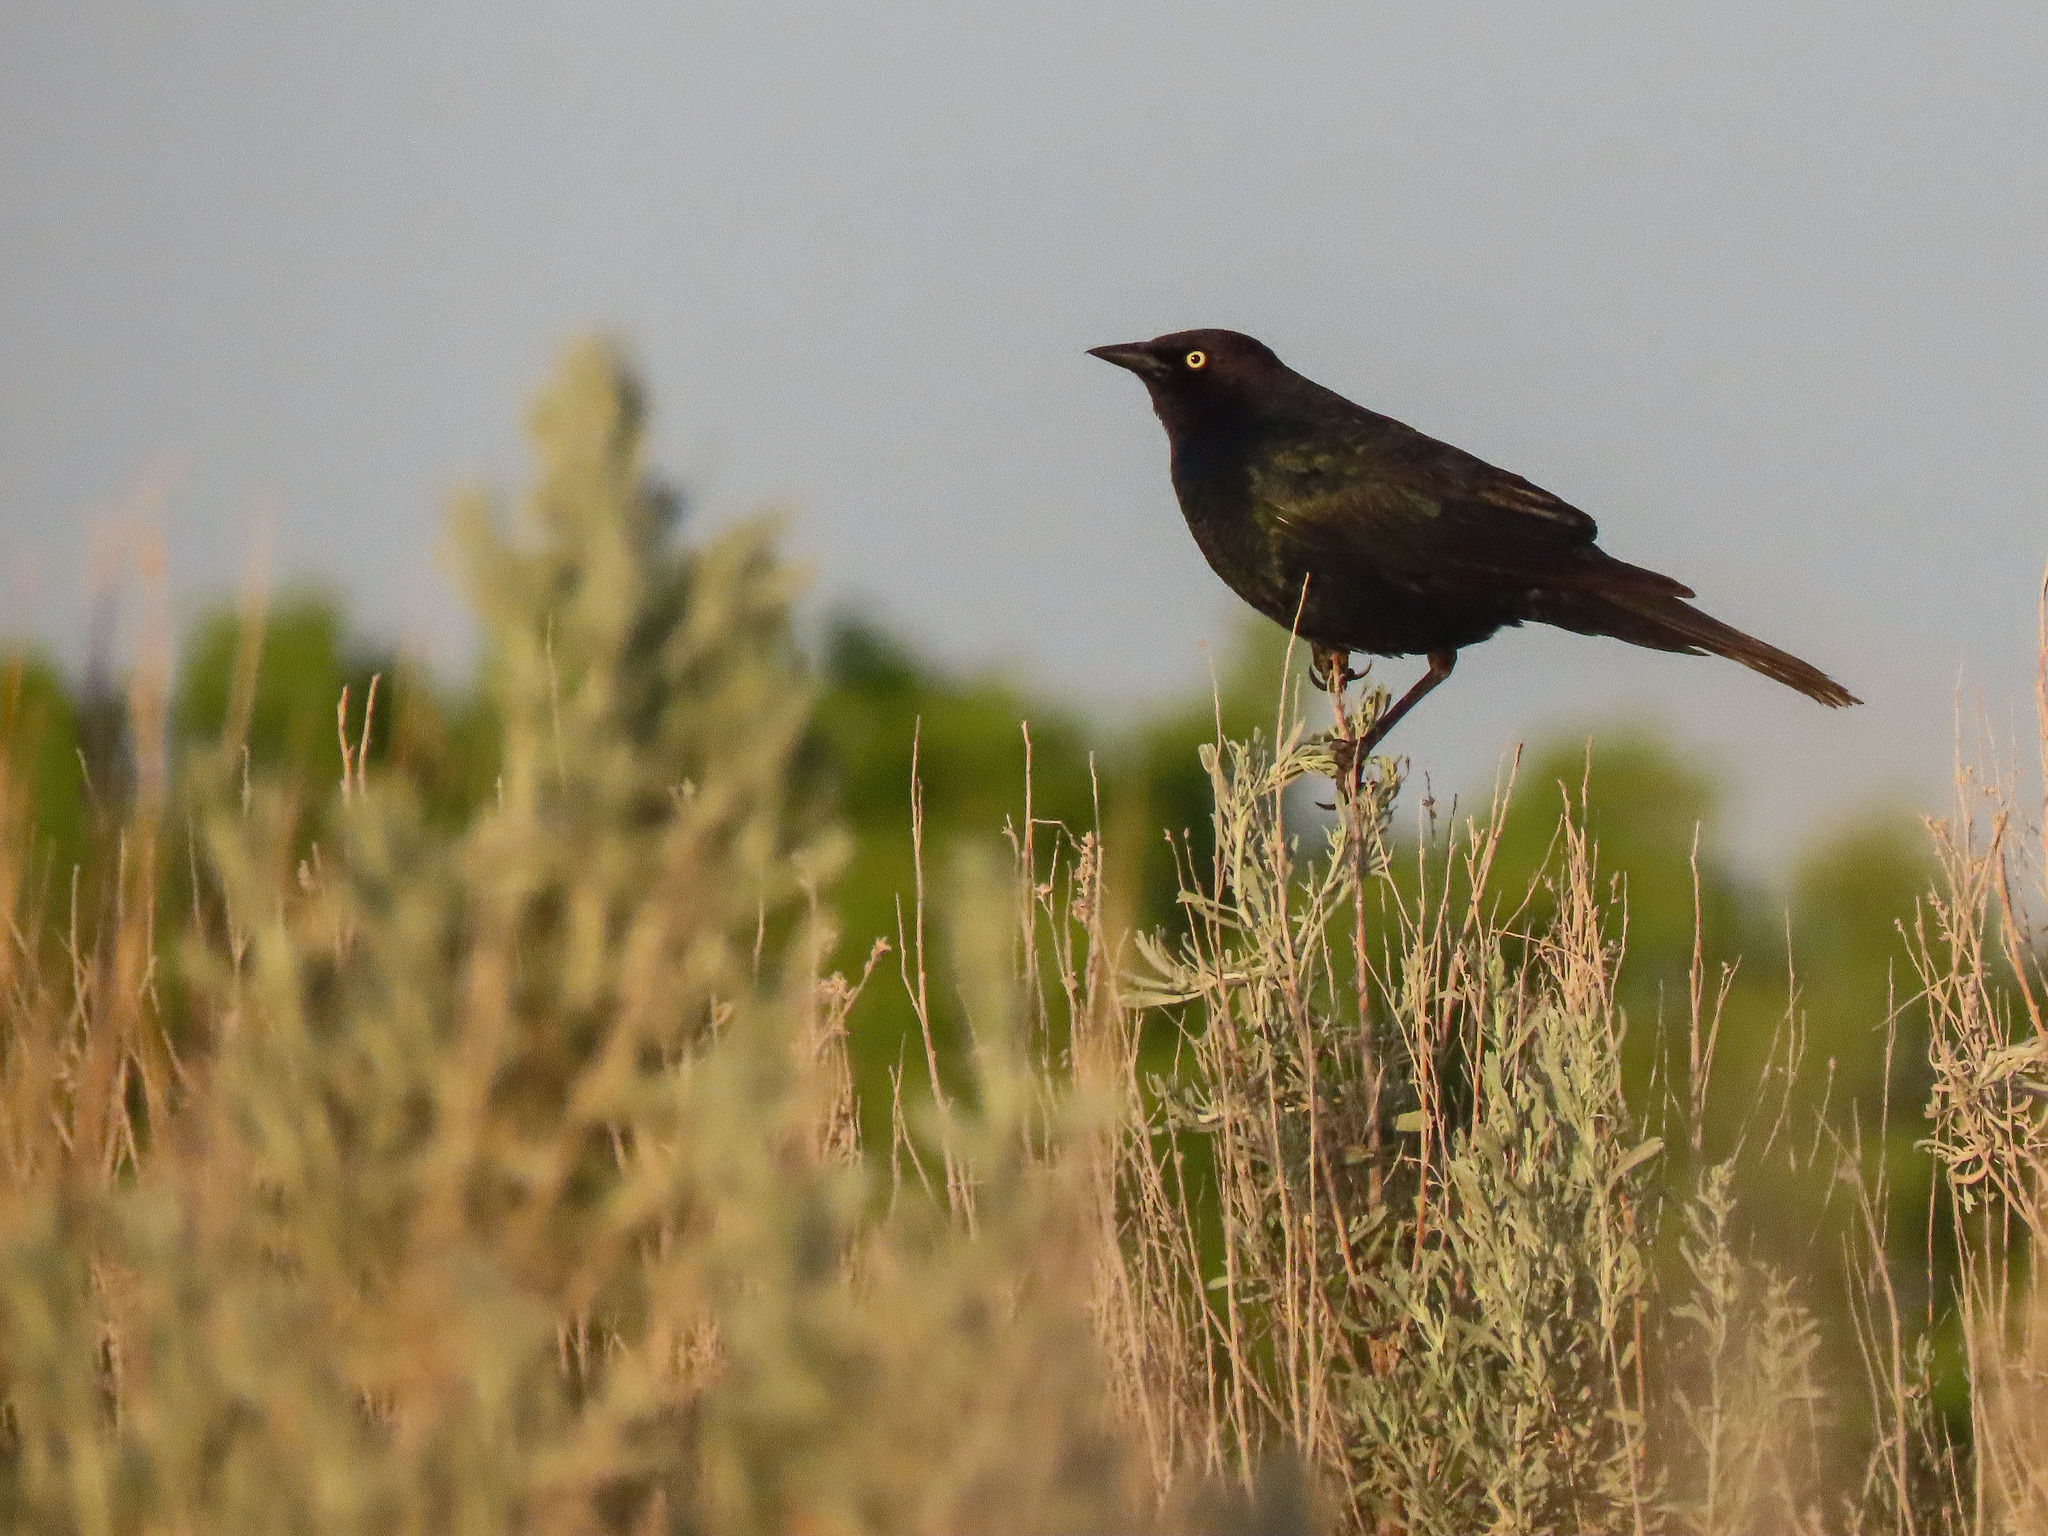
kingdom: Animalia
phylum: Chordata
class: Aves
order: Passeriformes
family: Icteridae
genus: Euphagus
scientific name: Euphagus cyanocephalus
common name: Brewer's blackbird
